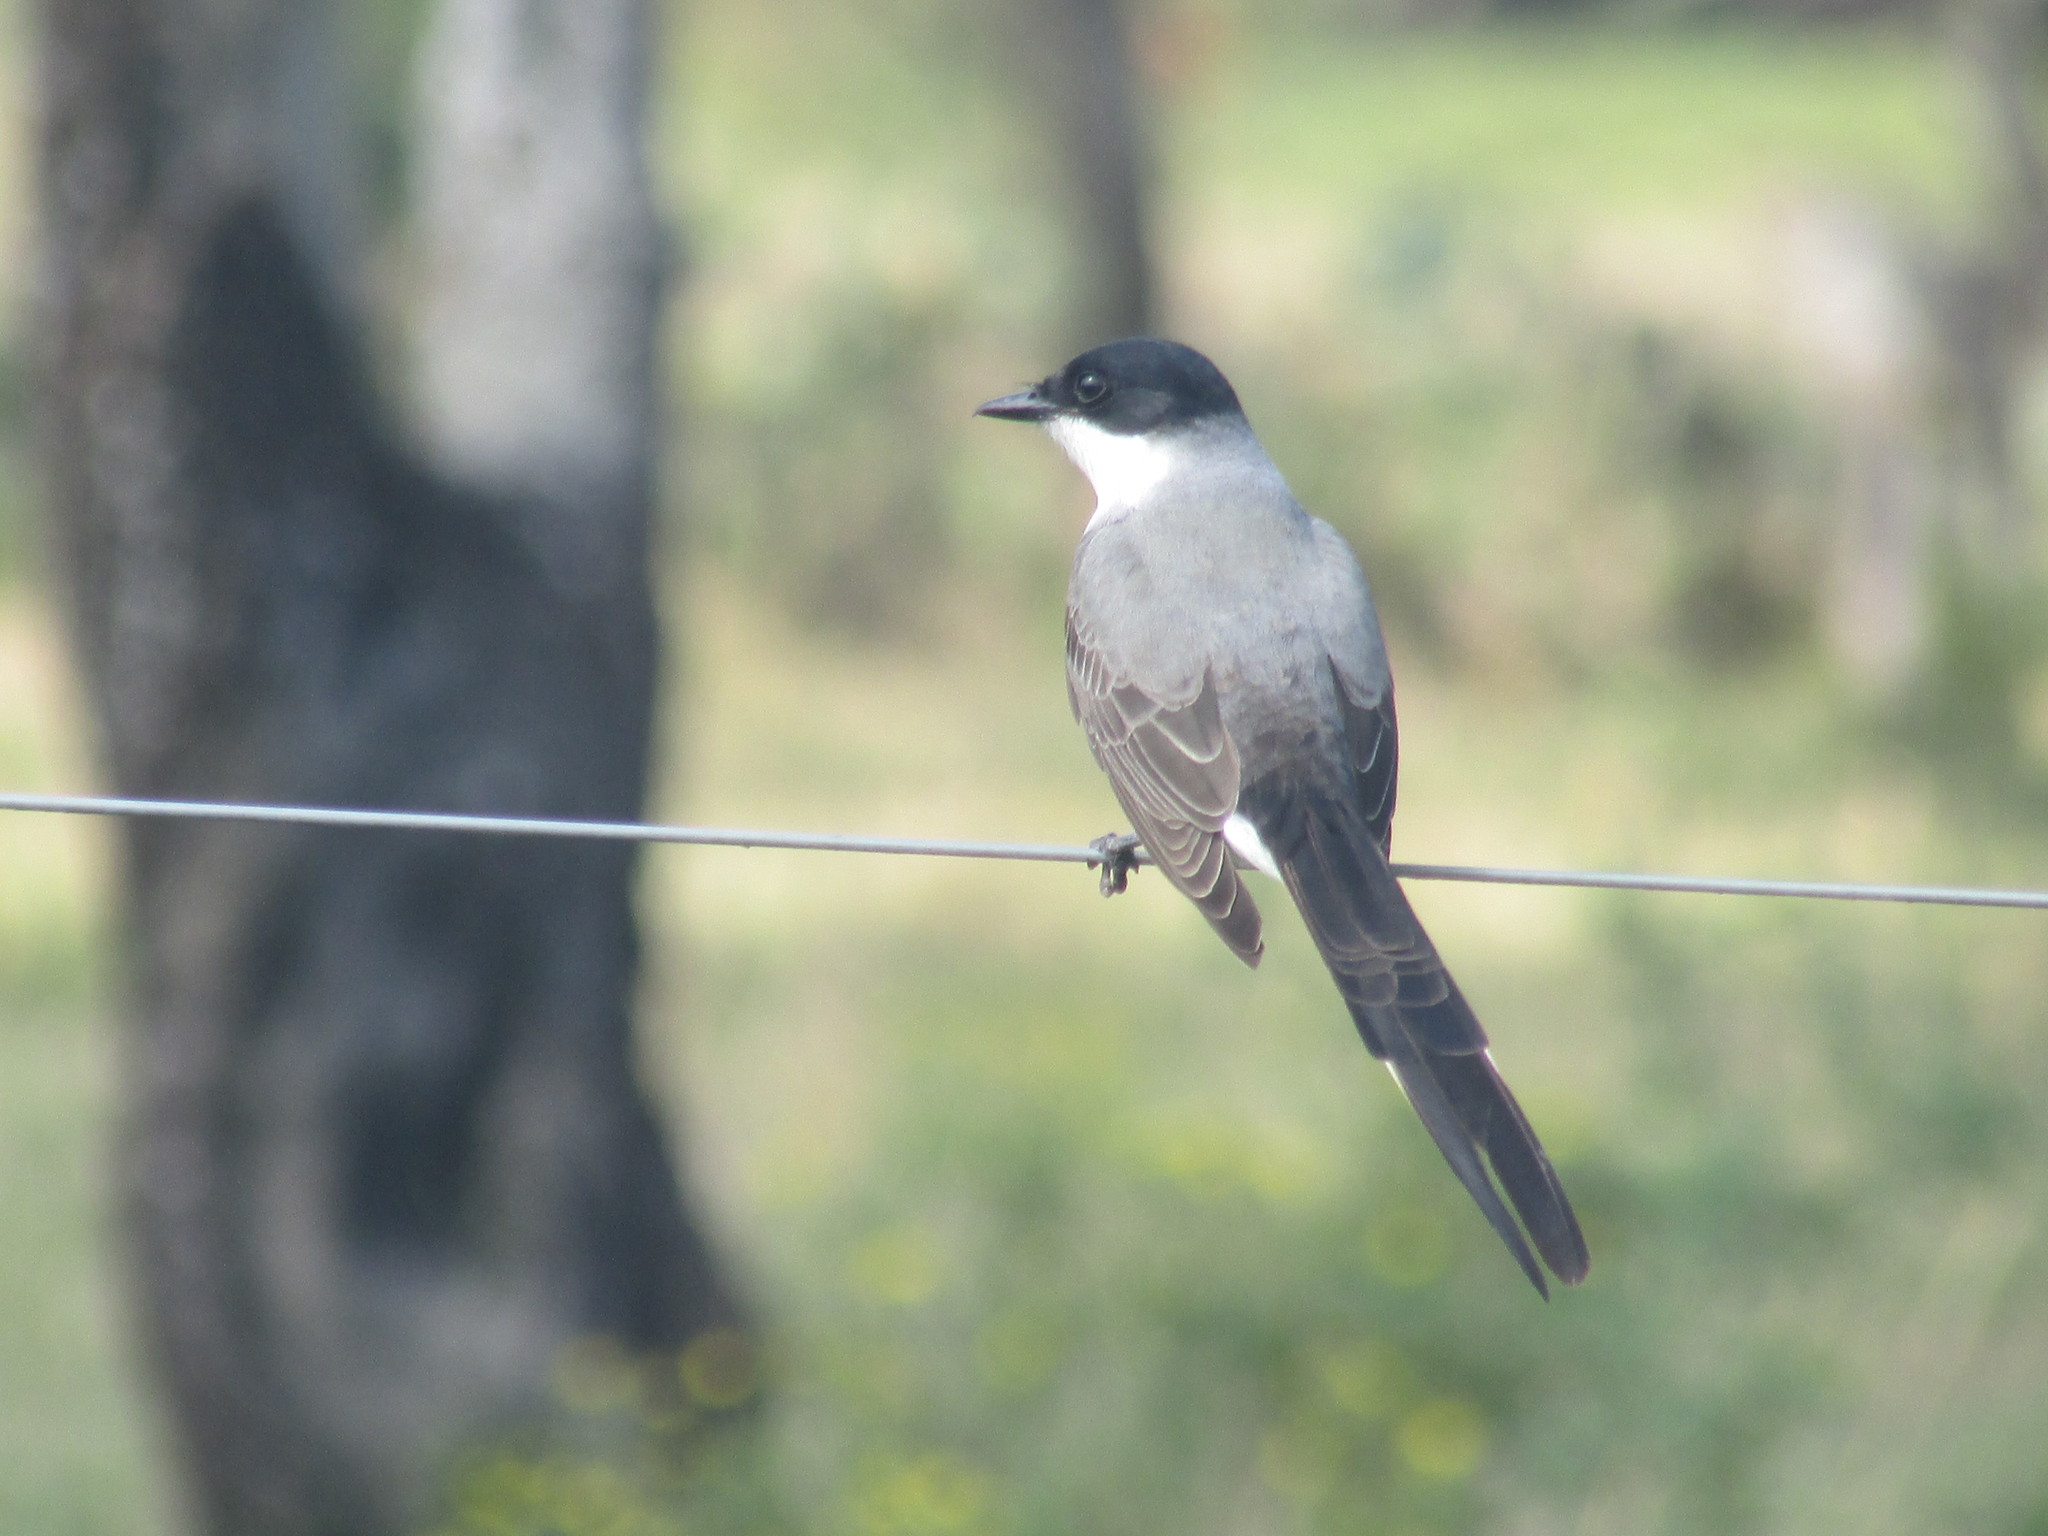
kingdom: Animalia
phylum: Chordata
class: Aves
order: Passeriformes
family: Tyrannidae
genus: Tyrannus
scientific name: Tyrannus savana
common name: Fork-tailed flycatcher
